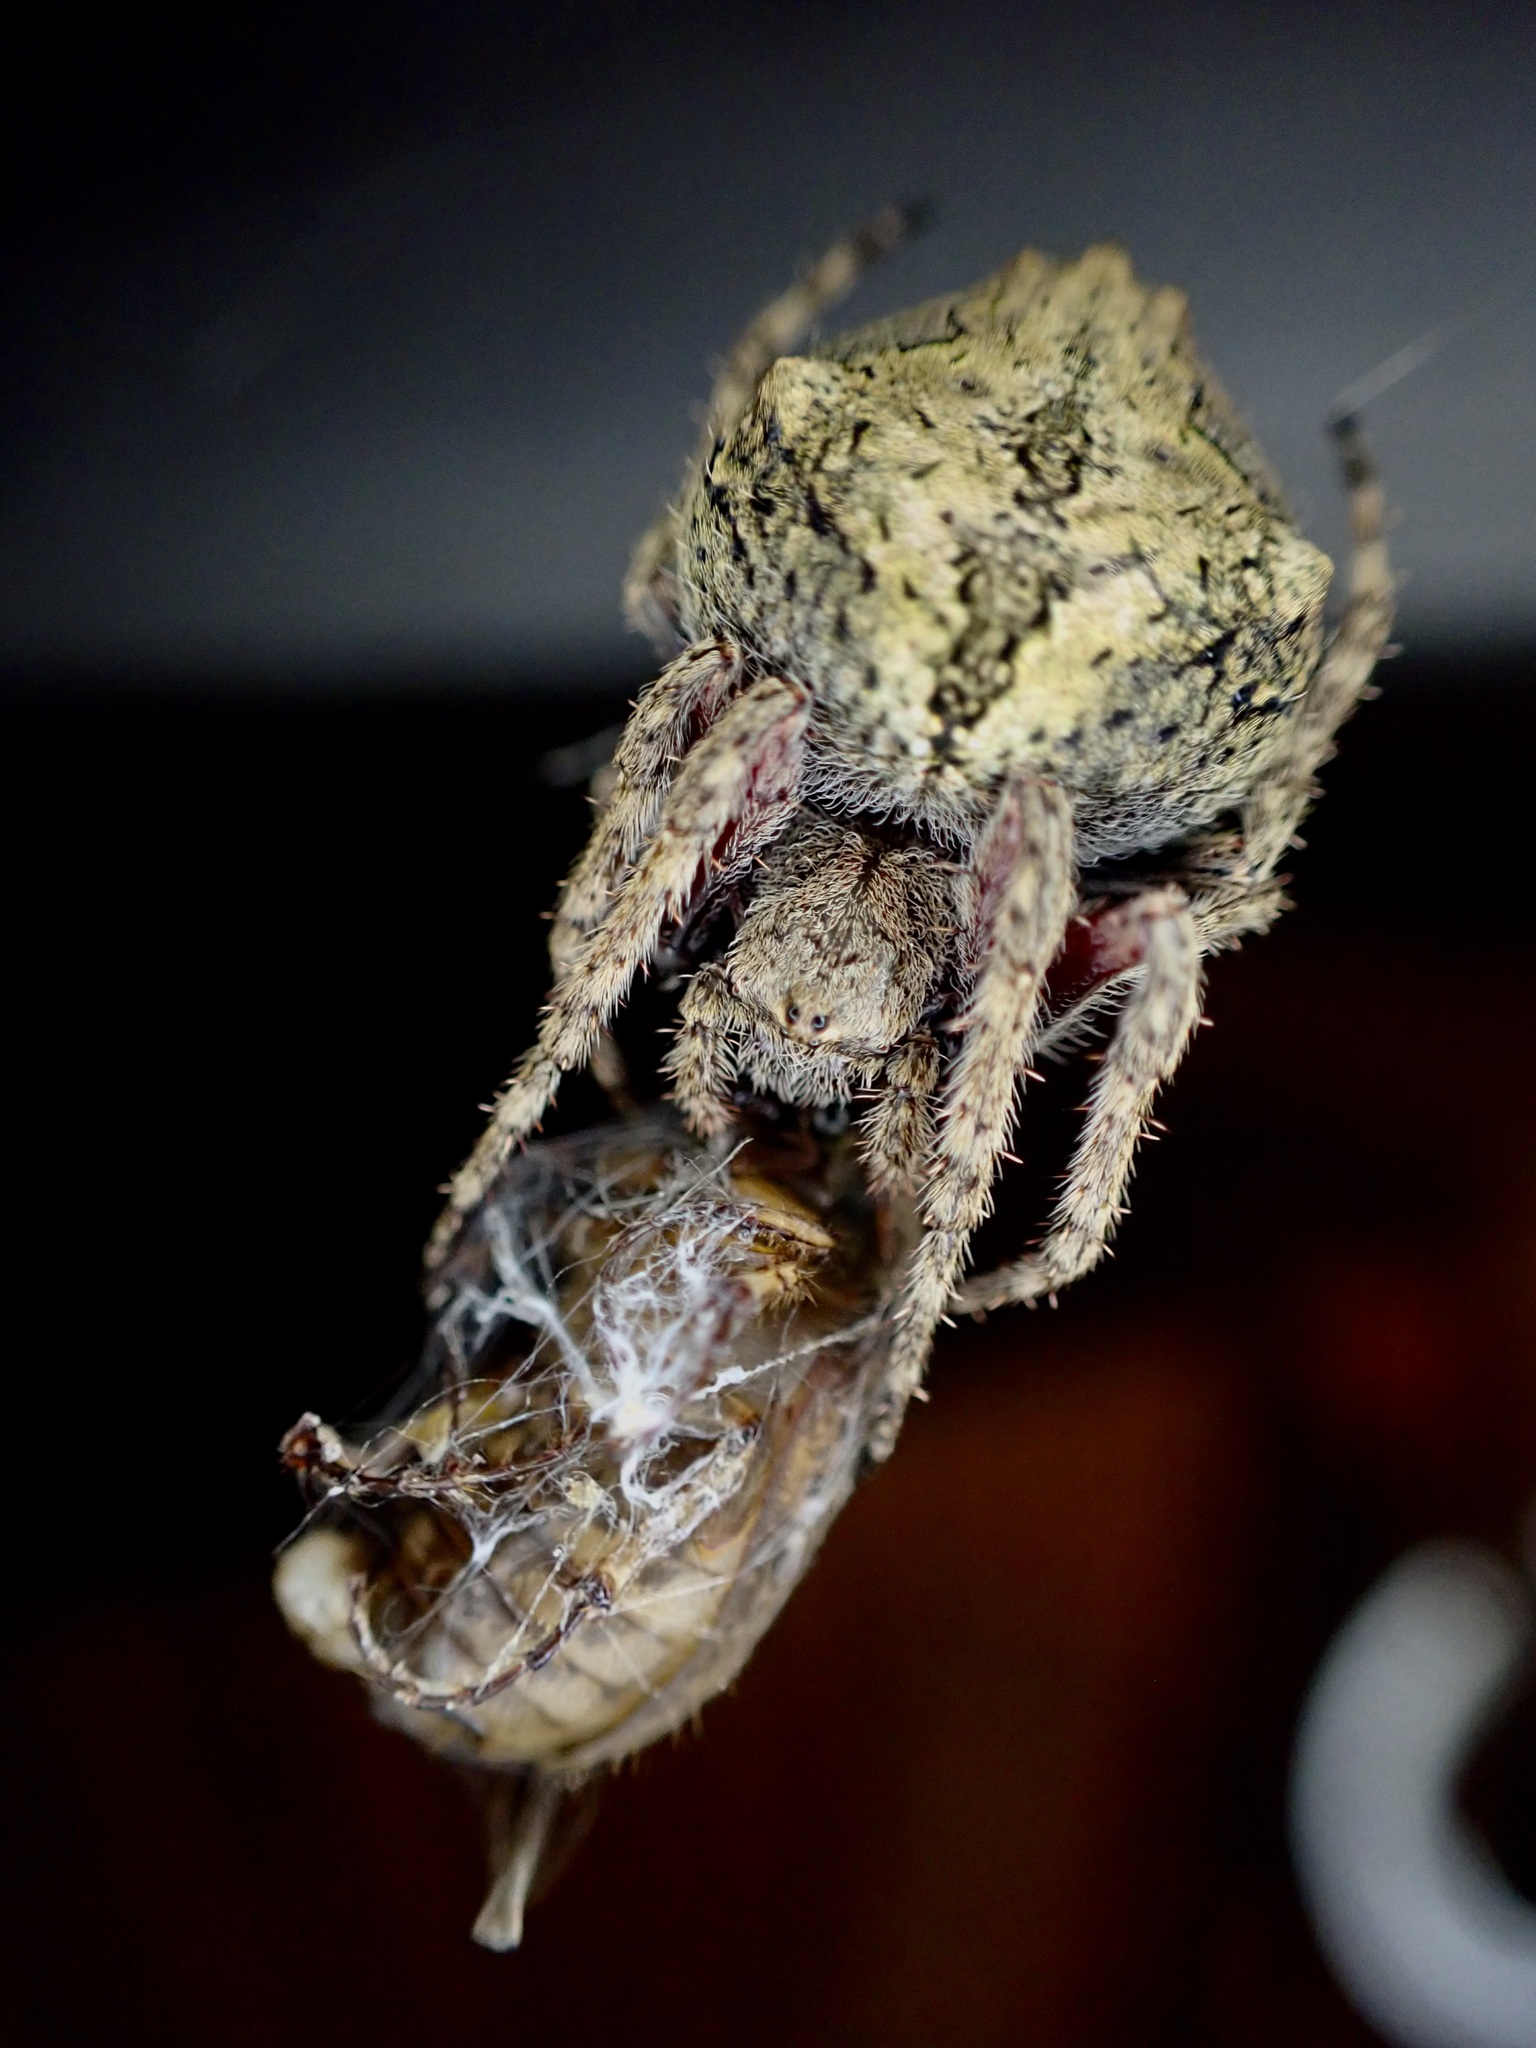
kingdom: Animalia
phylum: Arthropoda
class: Arachnida
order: Araneae
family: Araneidae
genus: Eriophora
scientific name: Eriophora pustulosa
